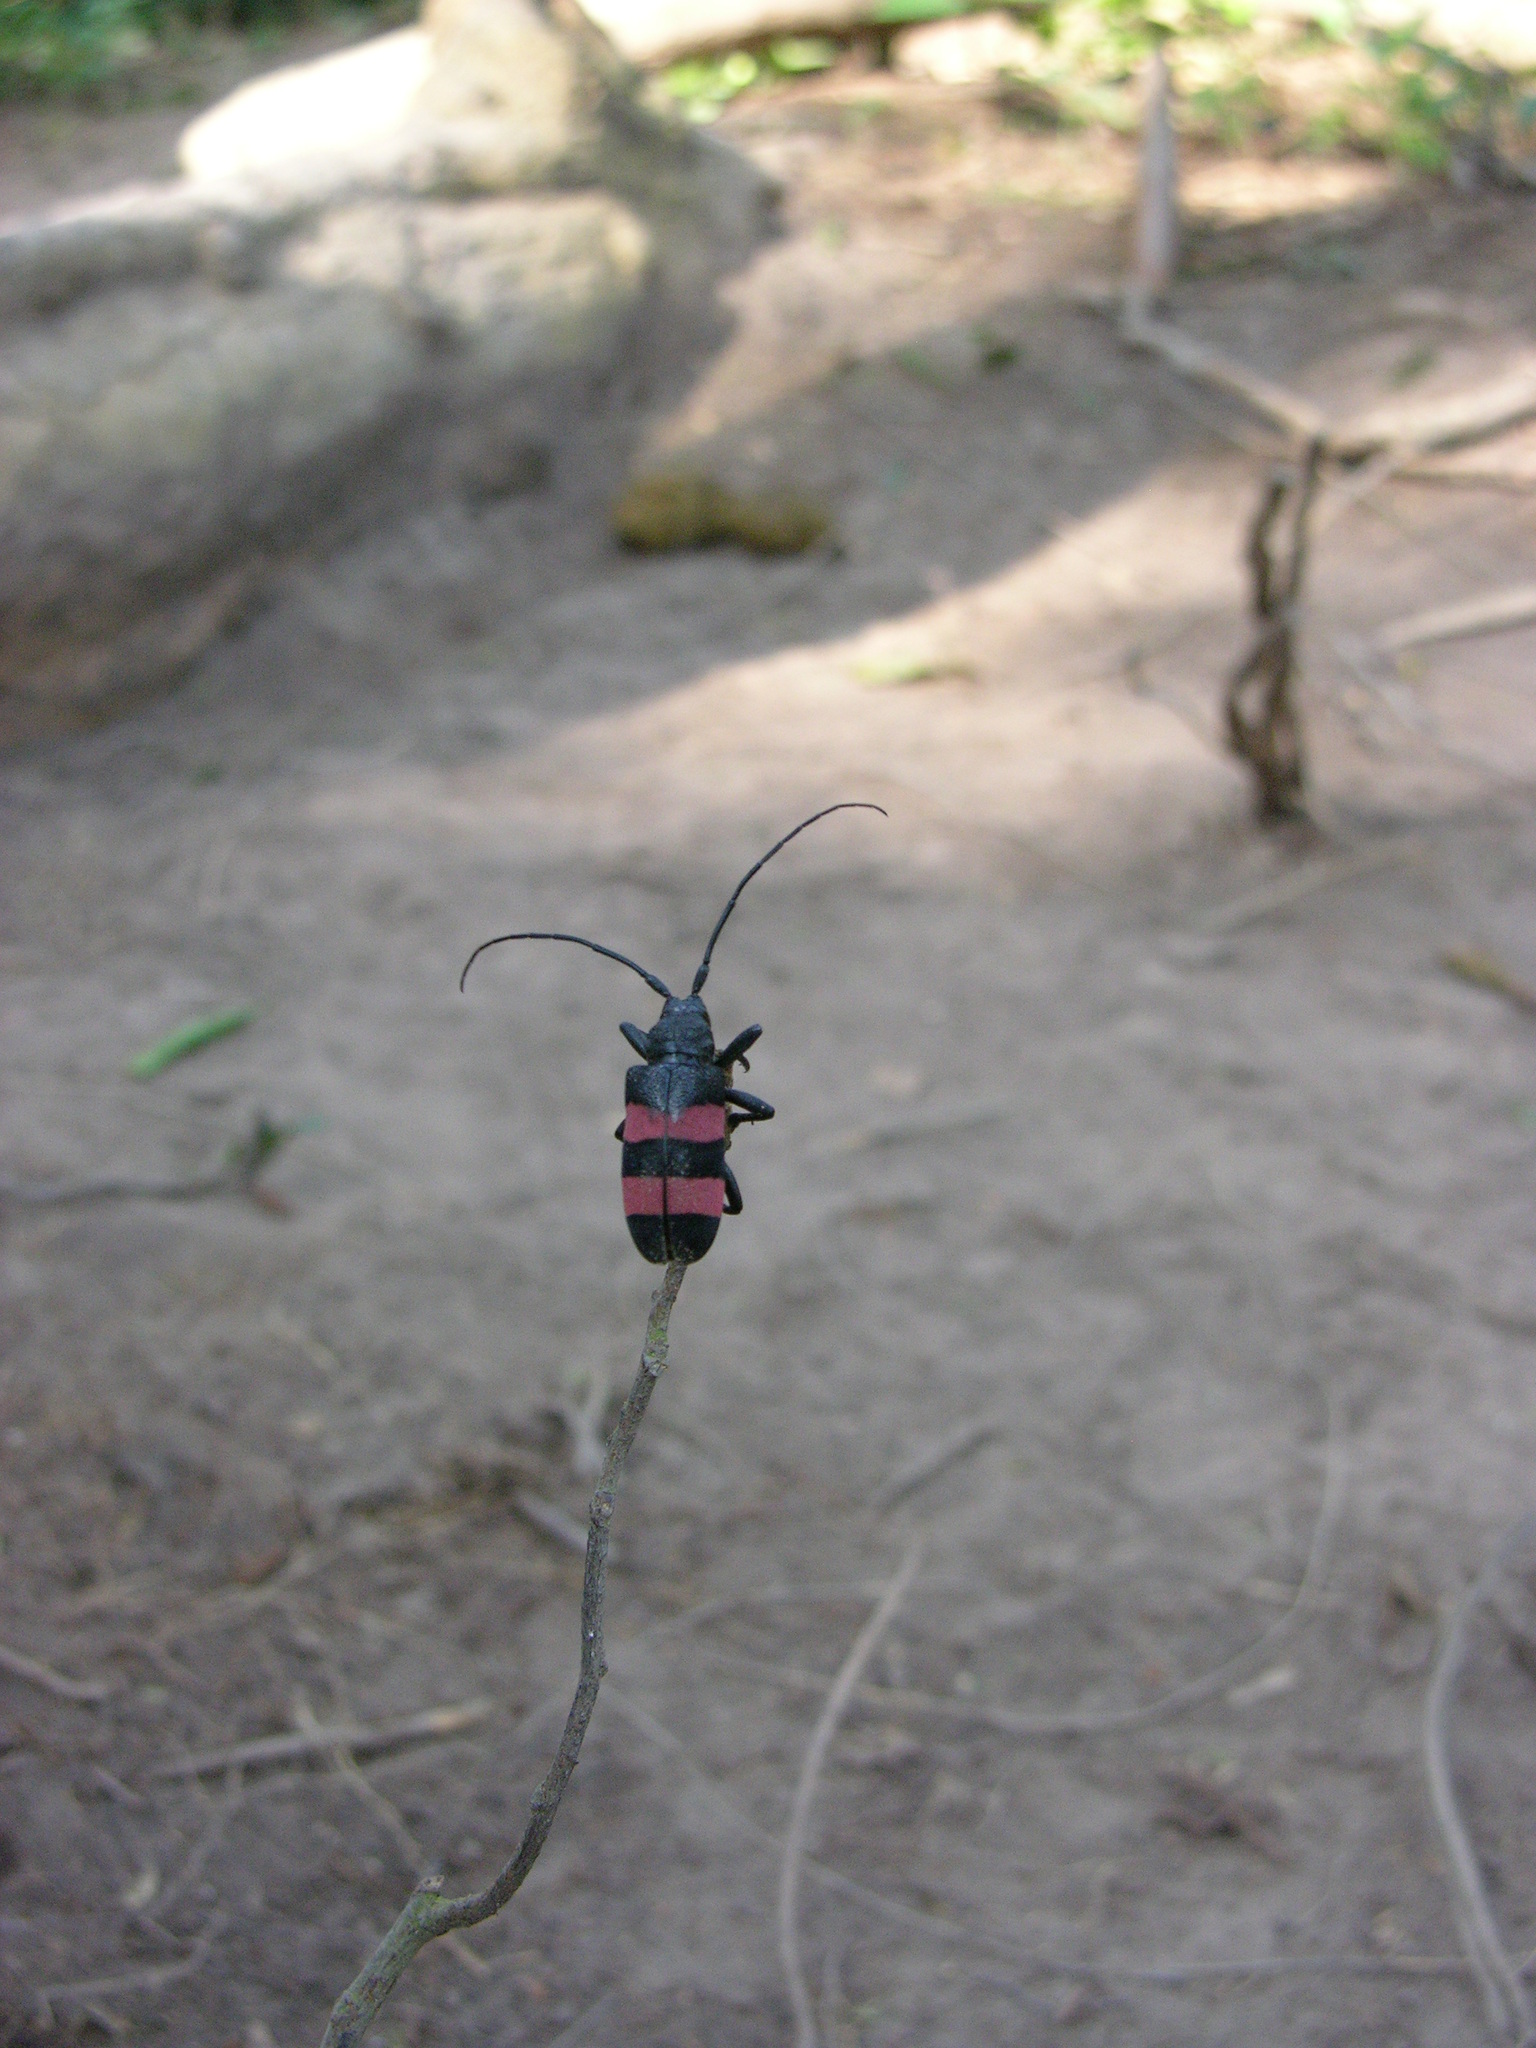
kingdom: Animalia
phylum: Arthropoda
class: Insecta
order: Coleoptera
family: Cerambycidae
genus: Ceroplesis
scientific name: Ceroplesis bicincta
